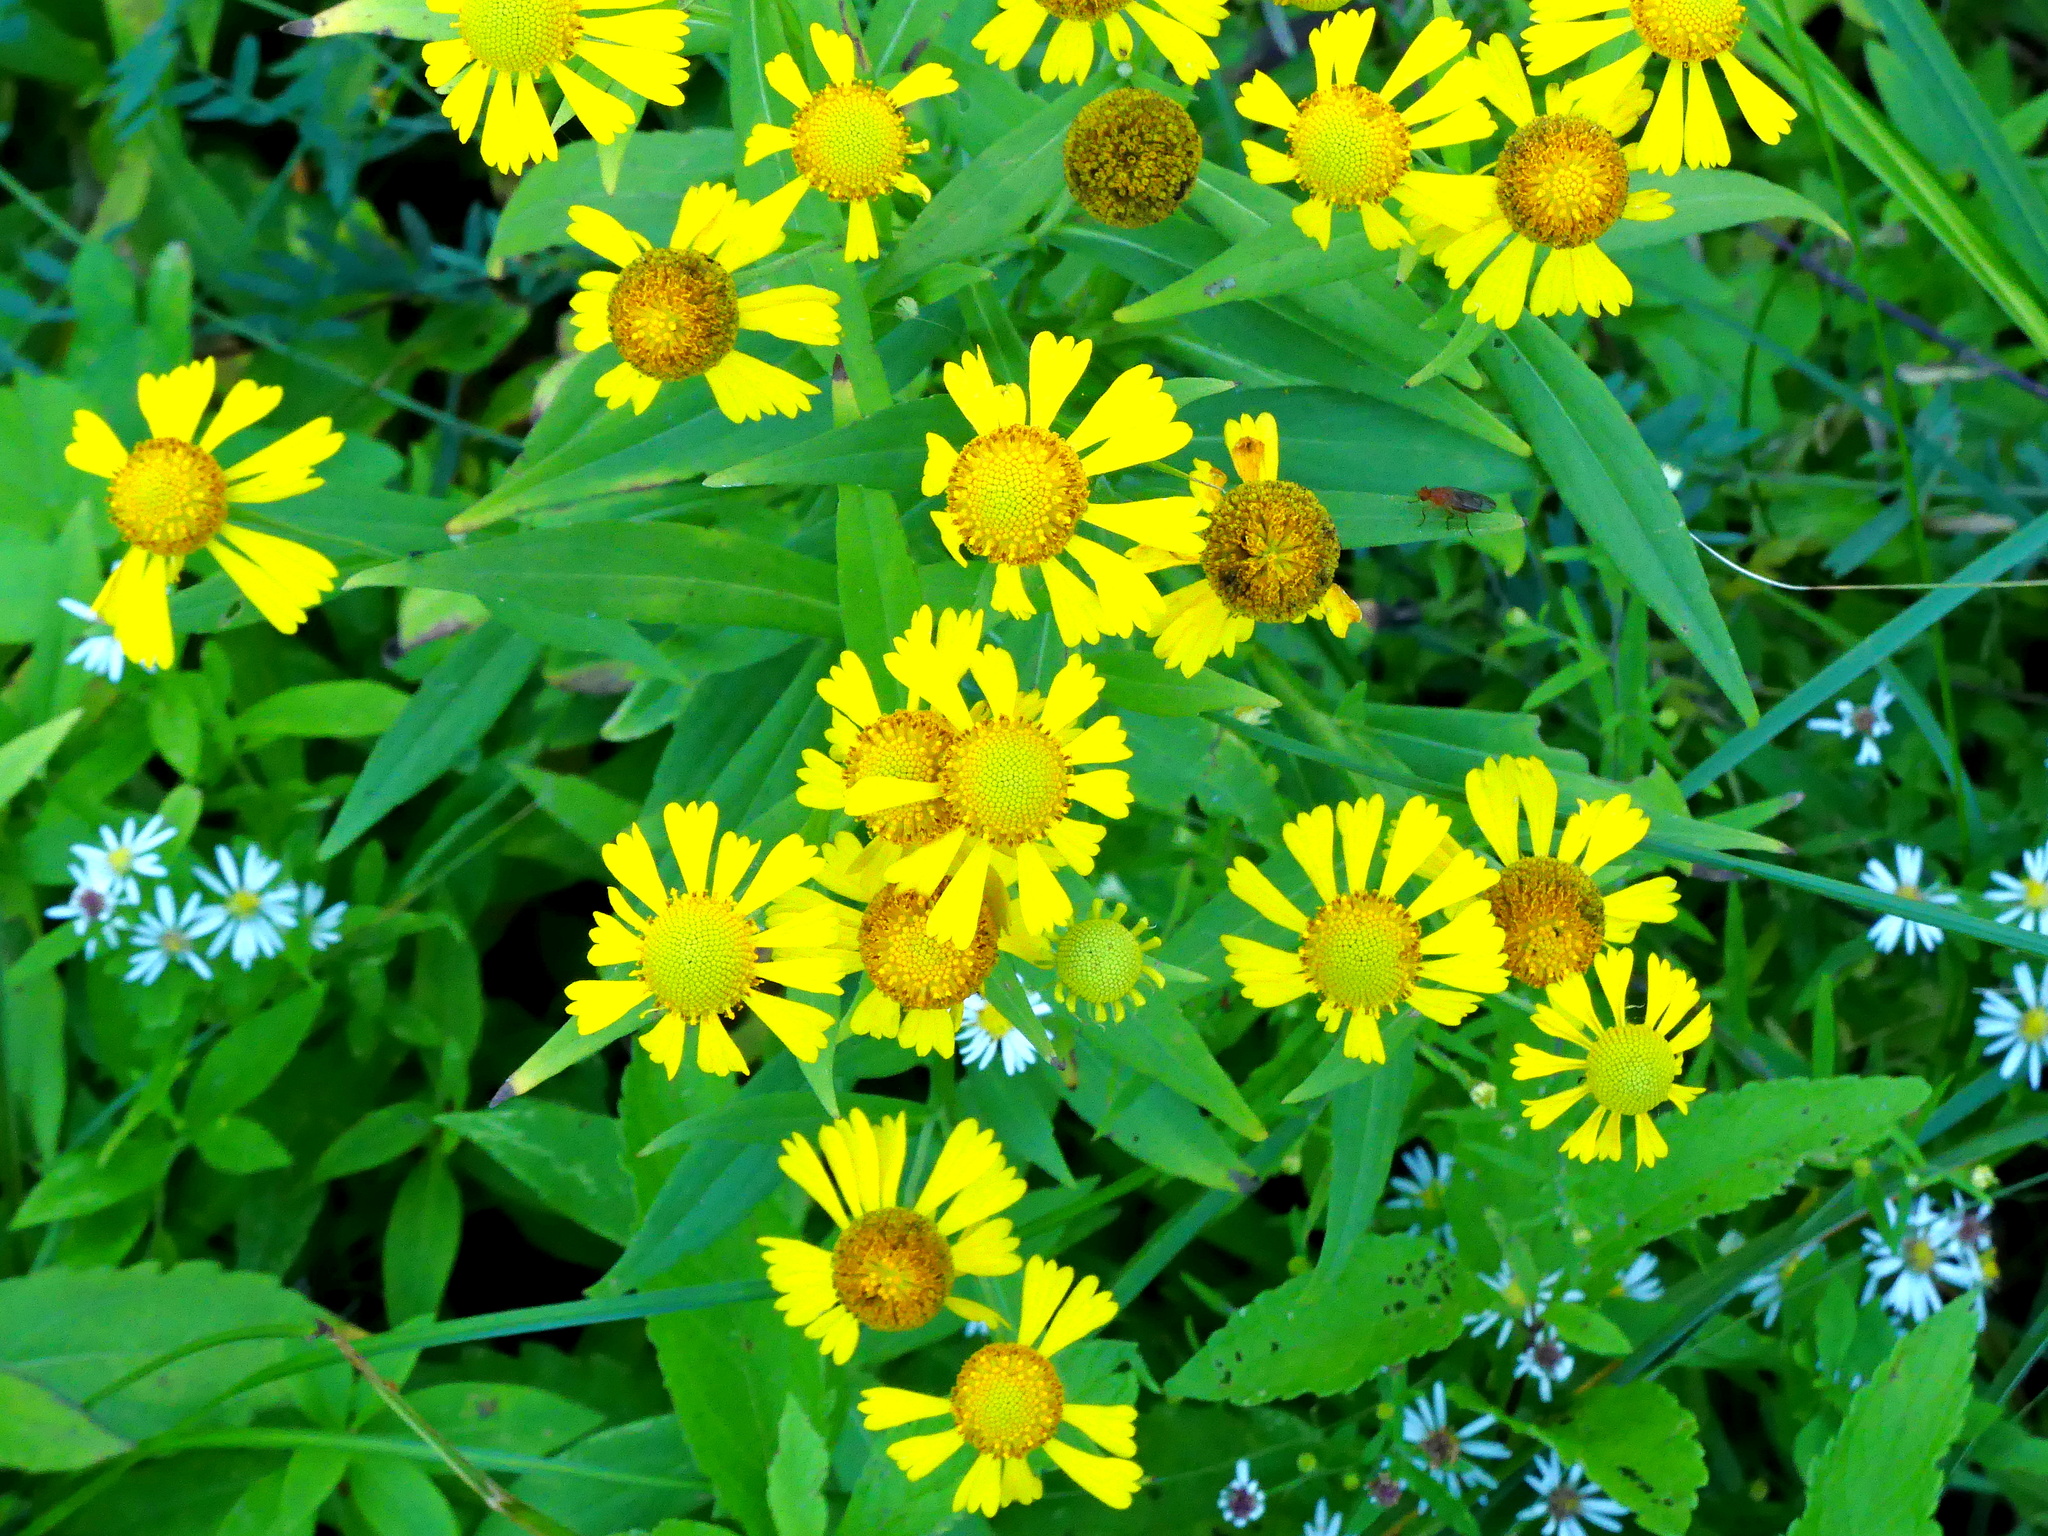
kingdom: Plantae
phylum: Tracheophyta
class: Magnoliopsida
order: Asterales
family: Asteraceae
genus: Helenium
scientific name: Helenium autumnale
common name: Sneezeweed
